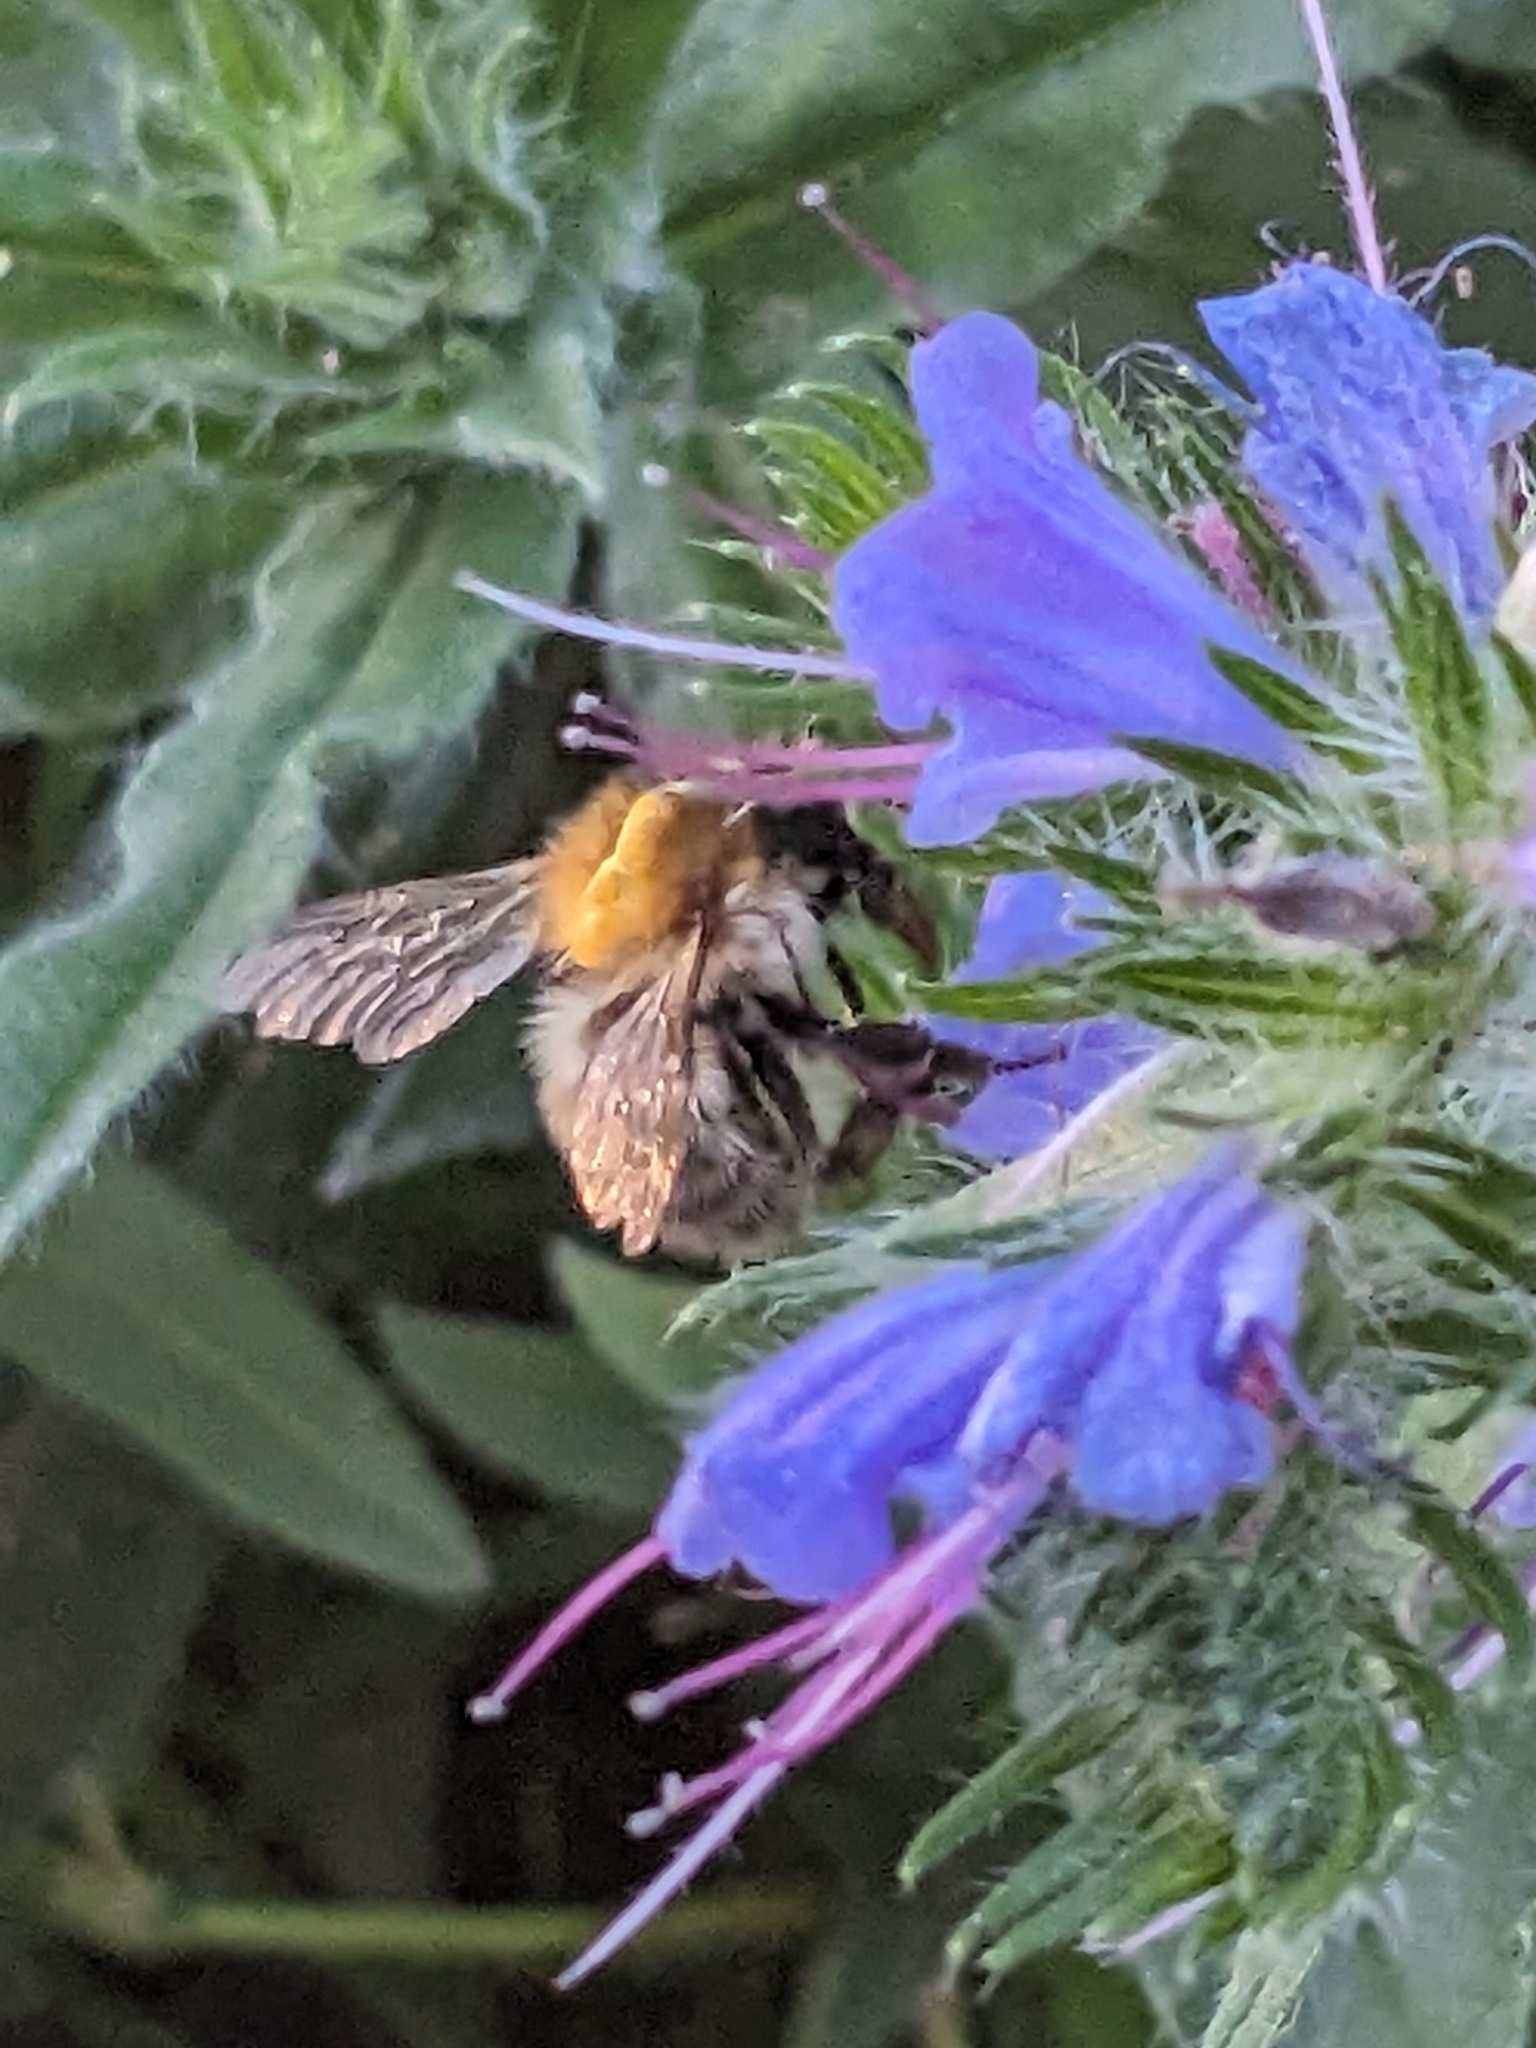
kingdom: Animalia
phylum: Arthropoda
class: Insecta
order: Hymenoptera
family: Apidae
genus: Bombus
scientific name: Bombus pascuorum
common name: Common carder bee
